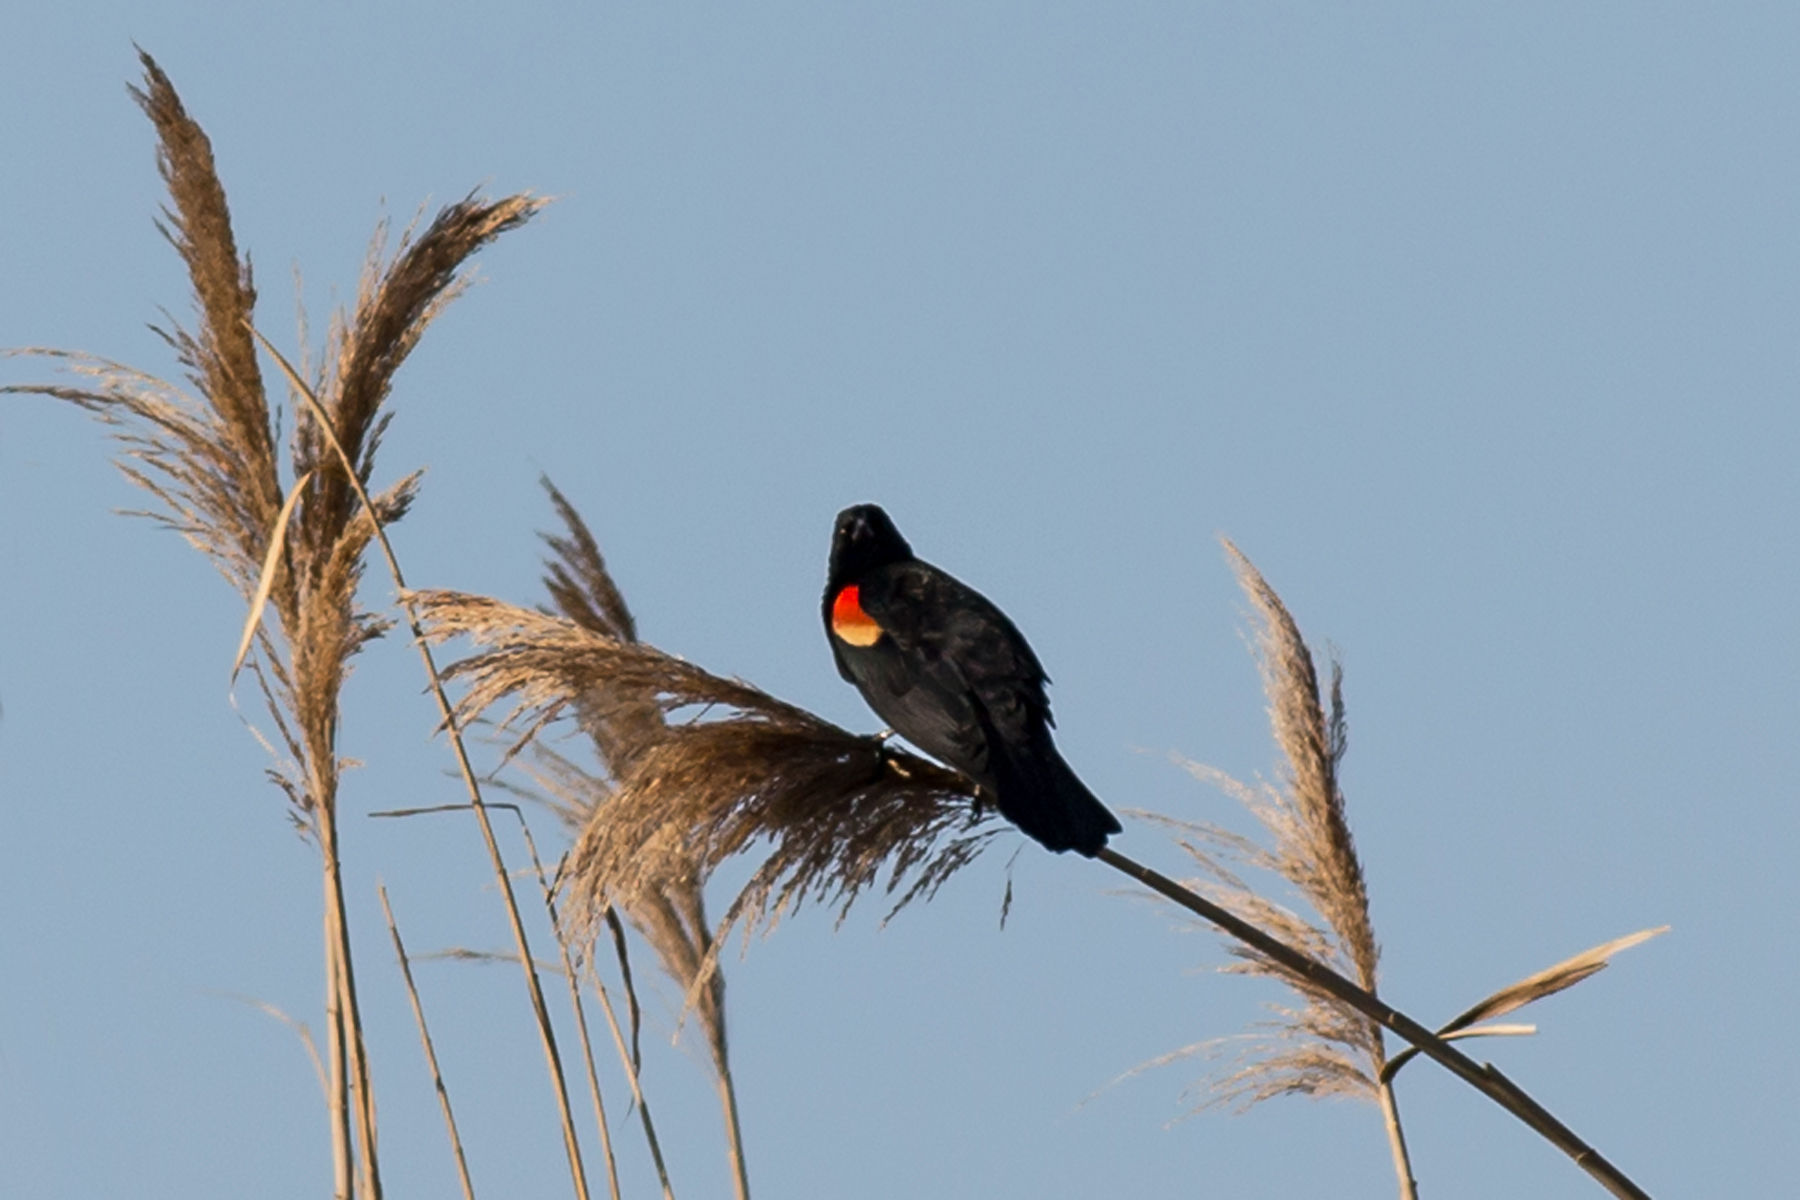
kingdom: Animalia
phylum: Chordata
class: Aves
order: Passeriformes
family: Icteridae
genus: Agelaius
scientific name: Agelaius phoeniceus
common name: Red-winged blackbird
